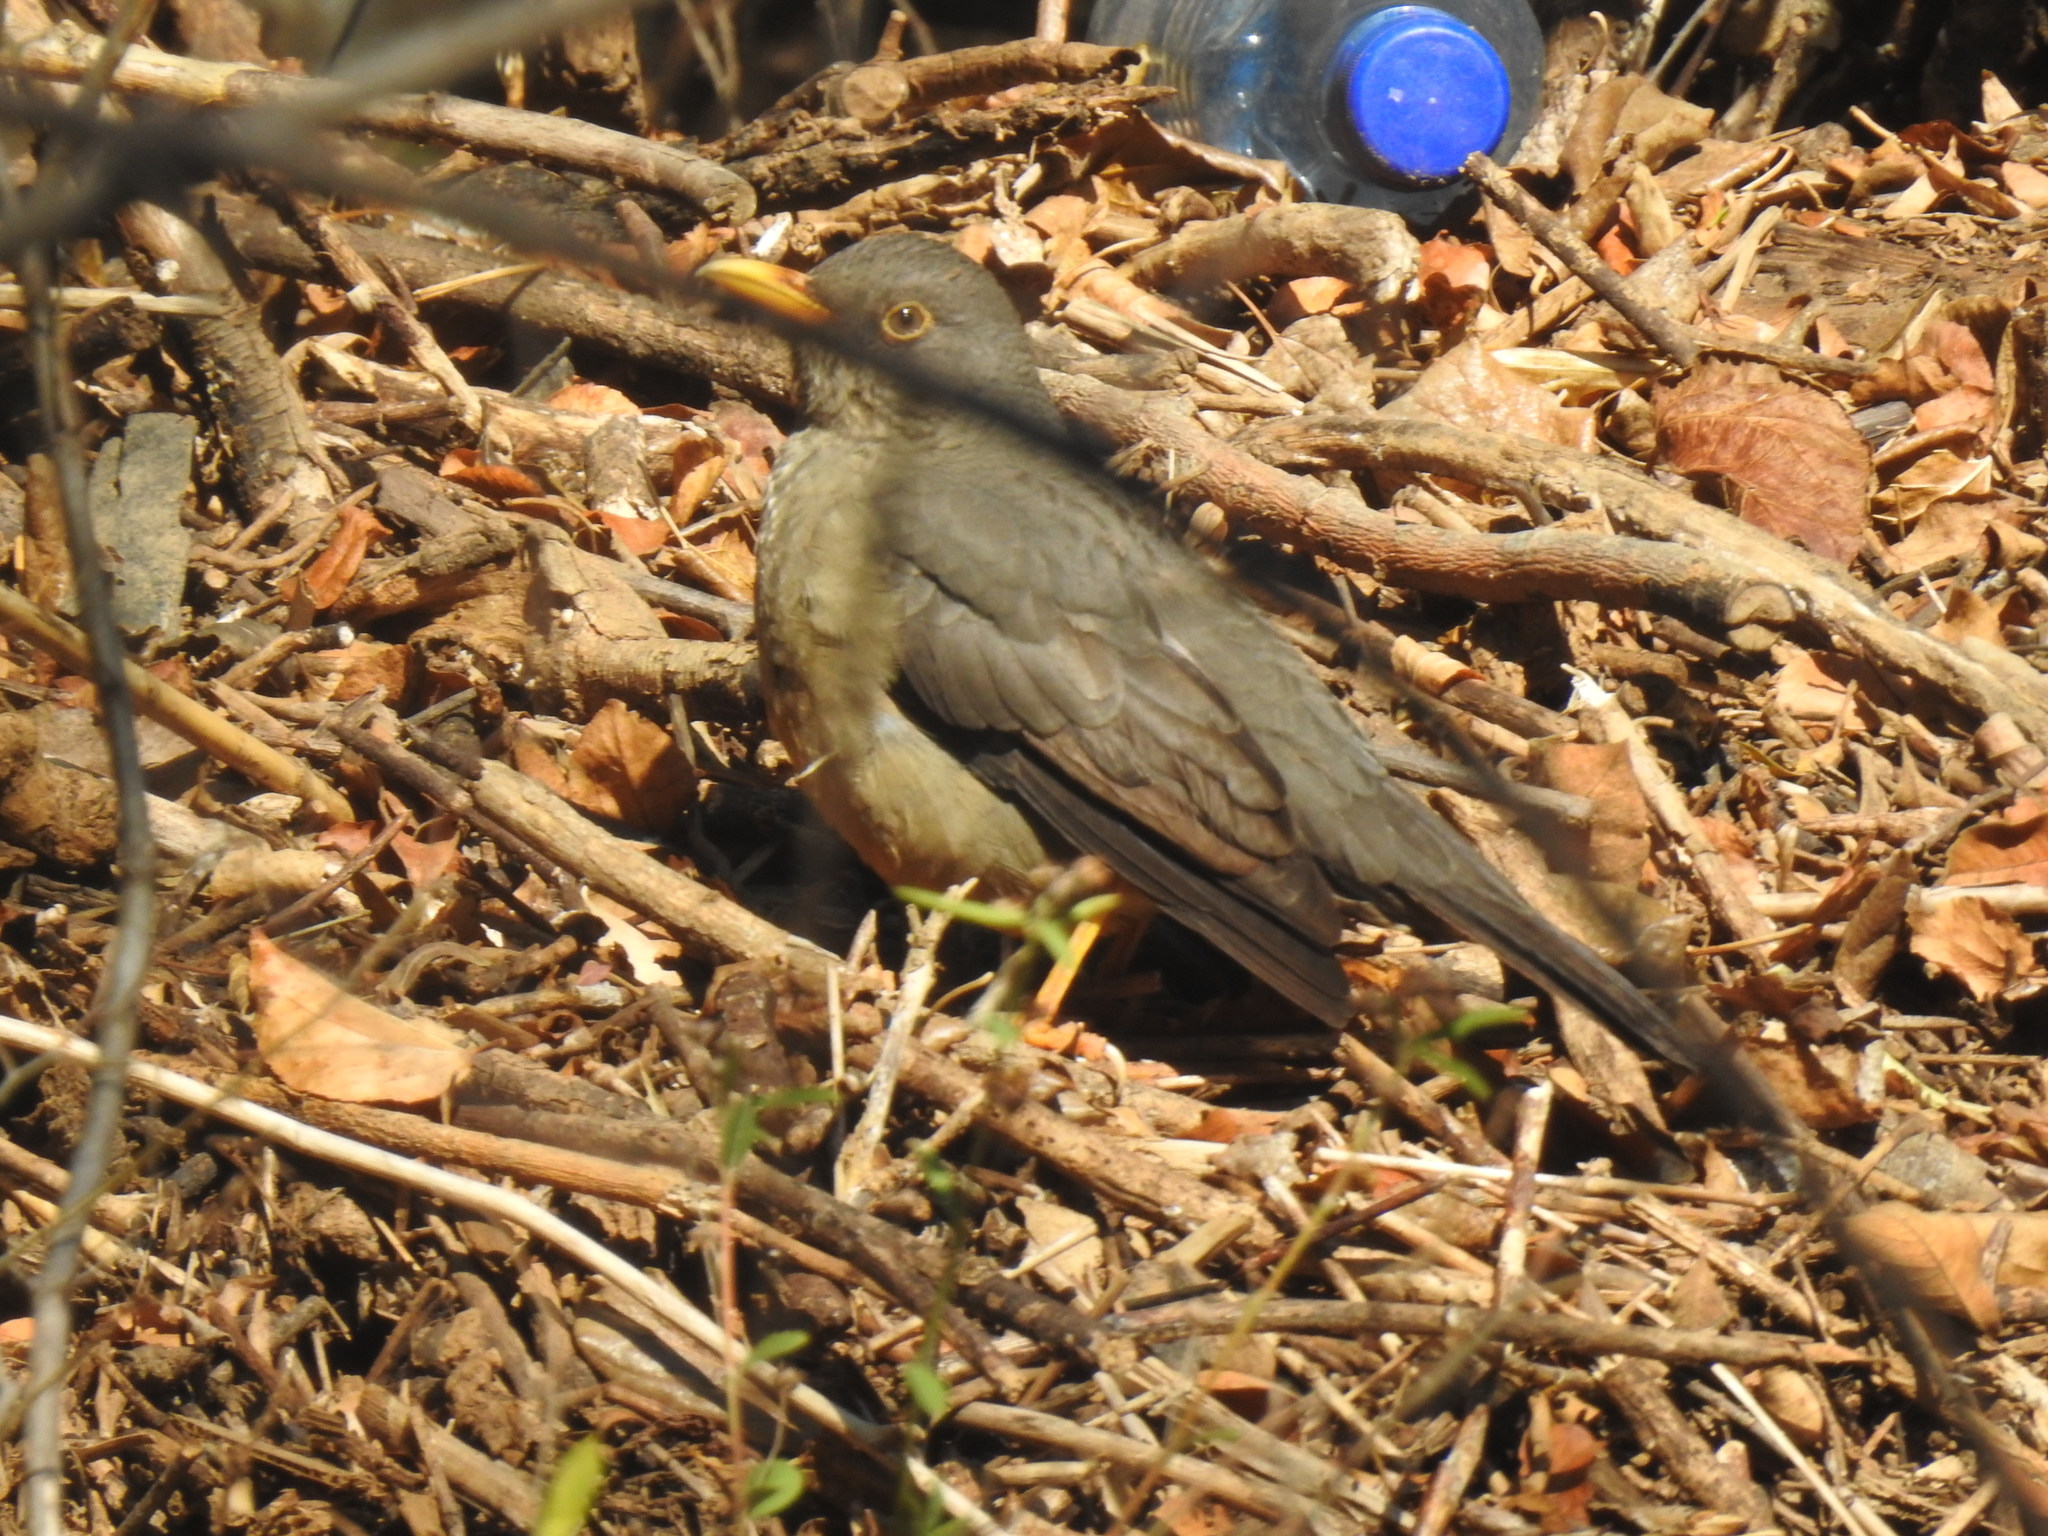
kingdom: Animalia
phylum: Chordata
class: Aves
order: Passeriformes
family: Turdidae
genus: Turdus
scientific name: Turdus smithi
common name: Karoo thrush
